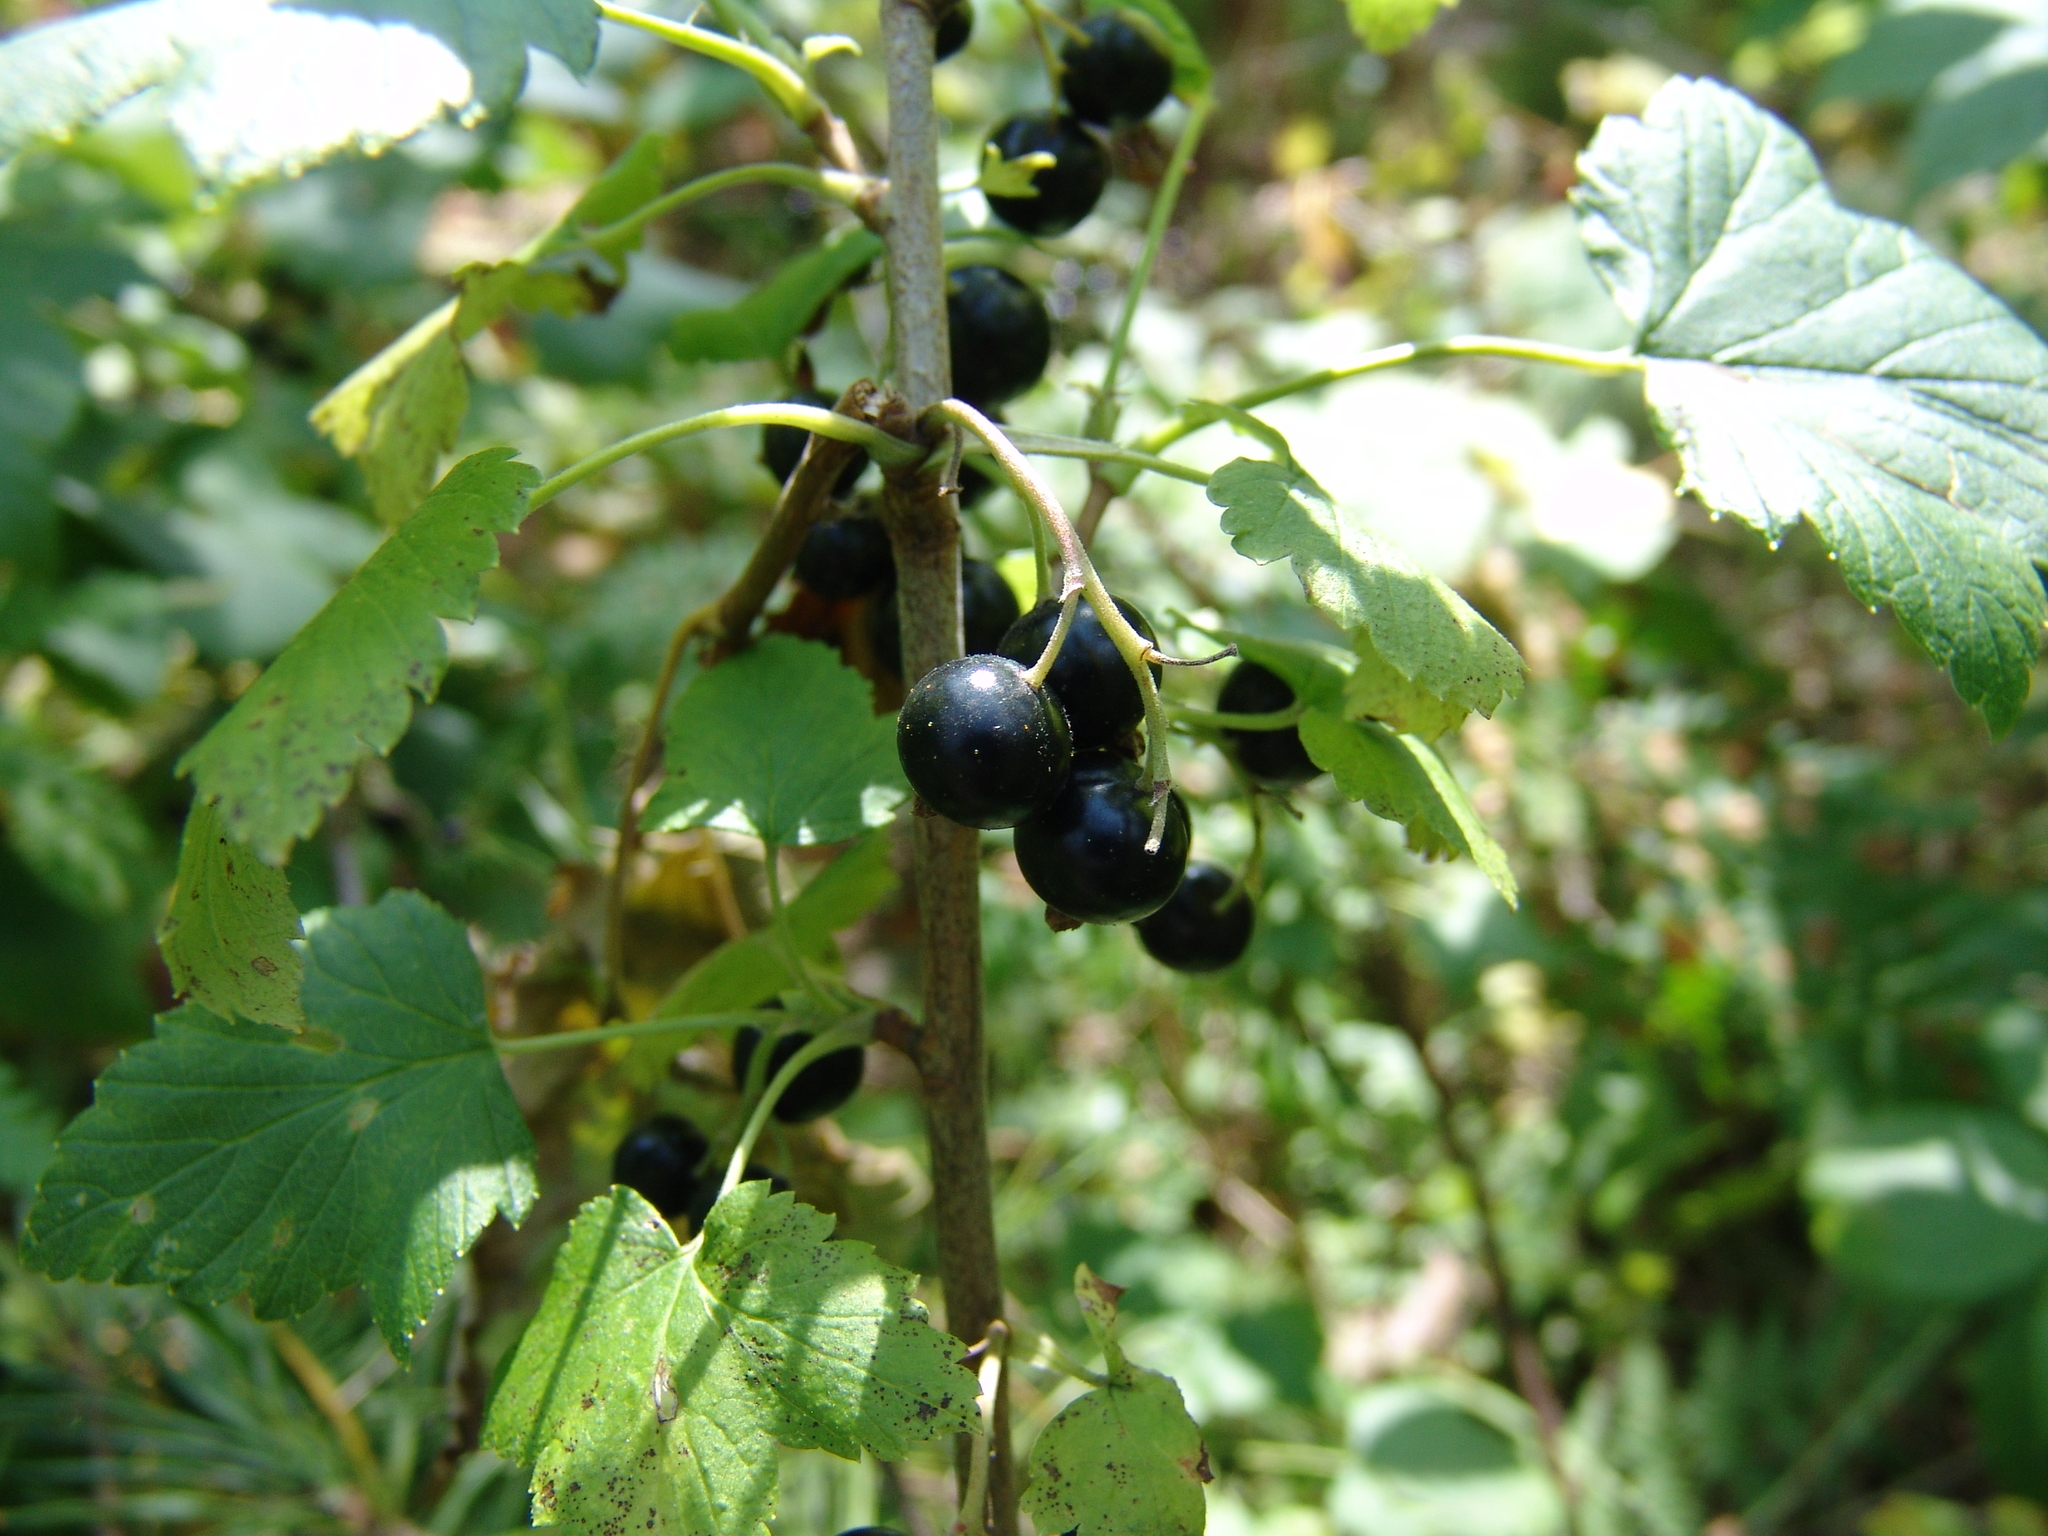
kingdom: Plantae
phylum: Tracheophyta
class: Magnoliopsida
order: Saxifragales
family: Grossulariaceae
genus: Ribes
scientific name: Ribes nigrum
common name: Black currant
